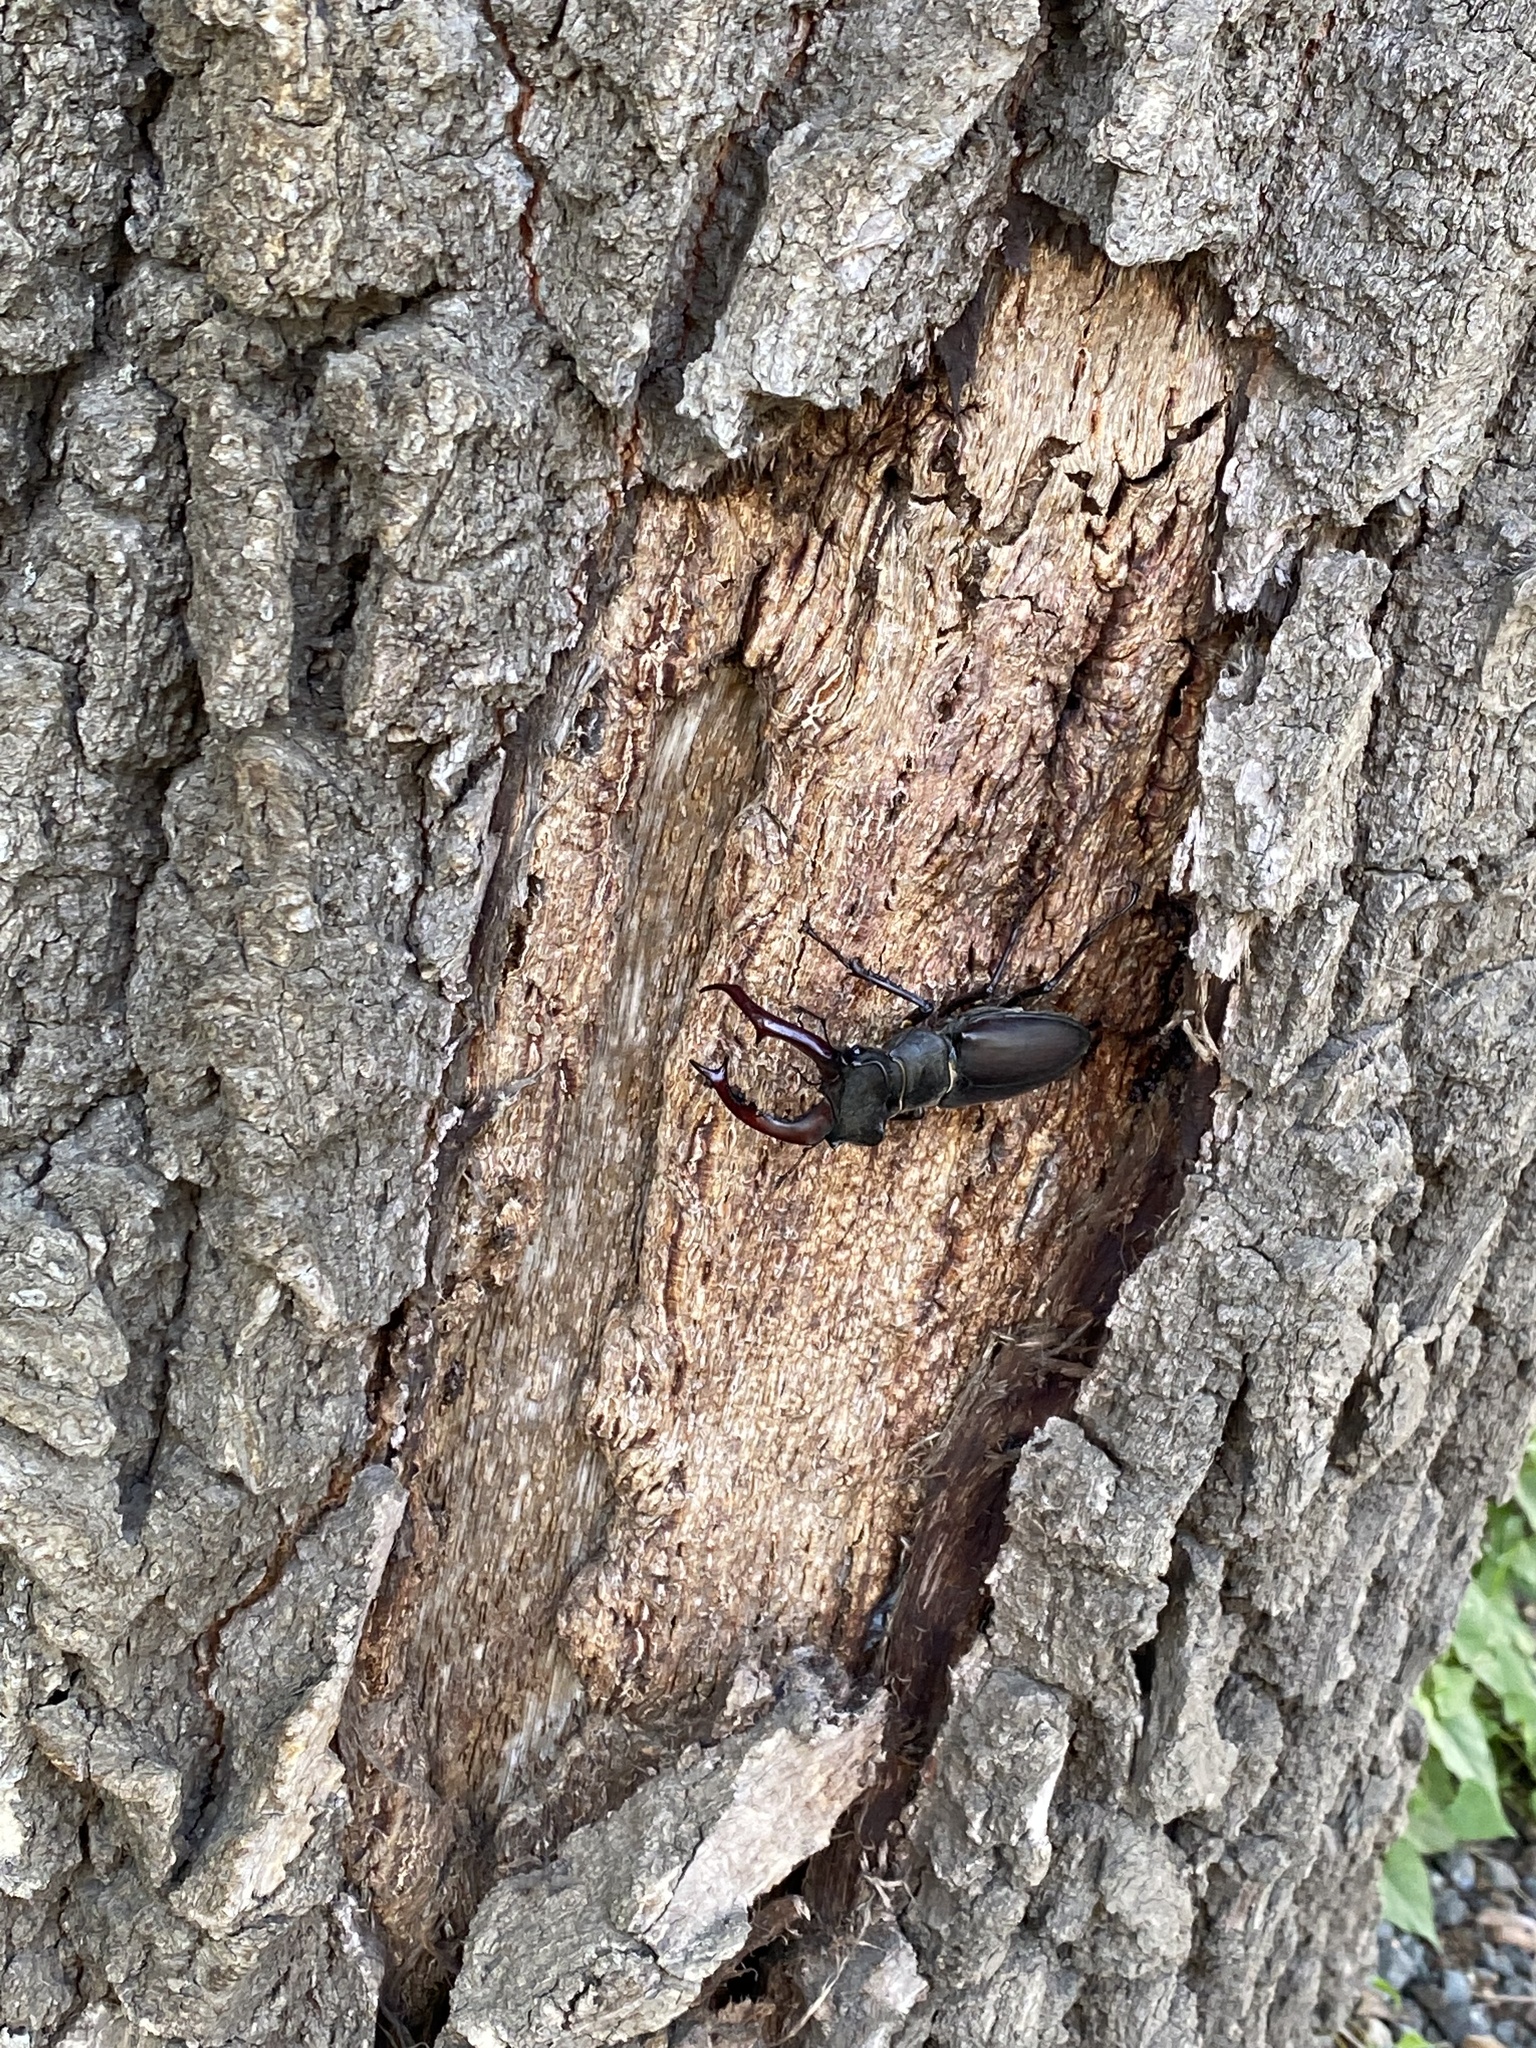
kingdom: Animalia
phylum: Arthropoda
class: Insecta
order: Coleoptera
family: Lucanidae
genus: Lucanus
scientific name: Lucanus cervus
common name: Stag beetle
